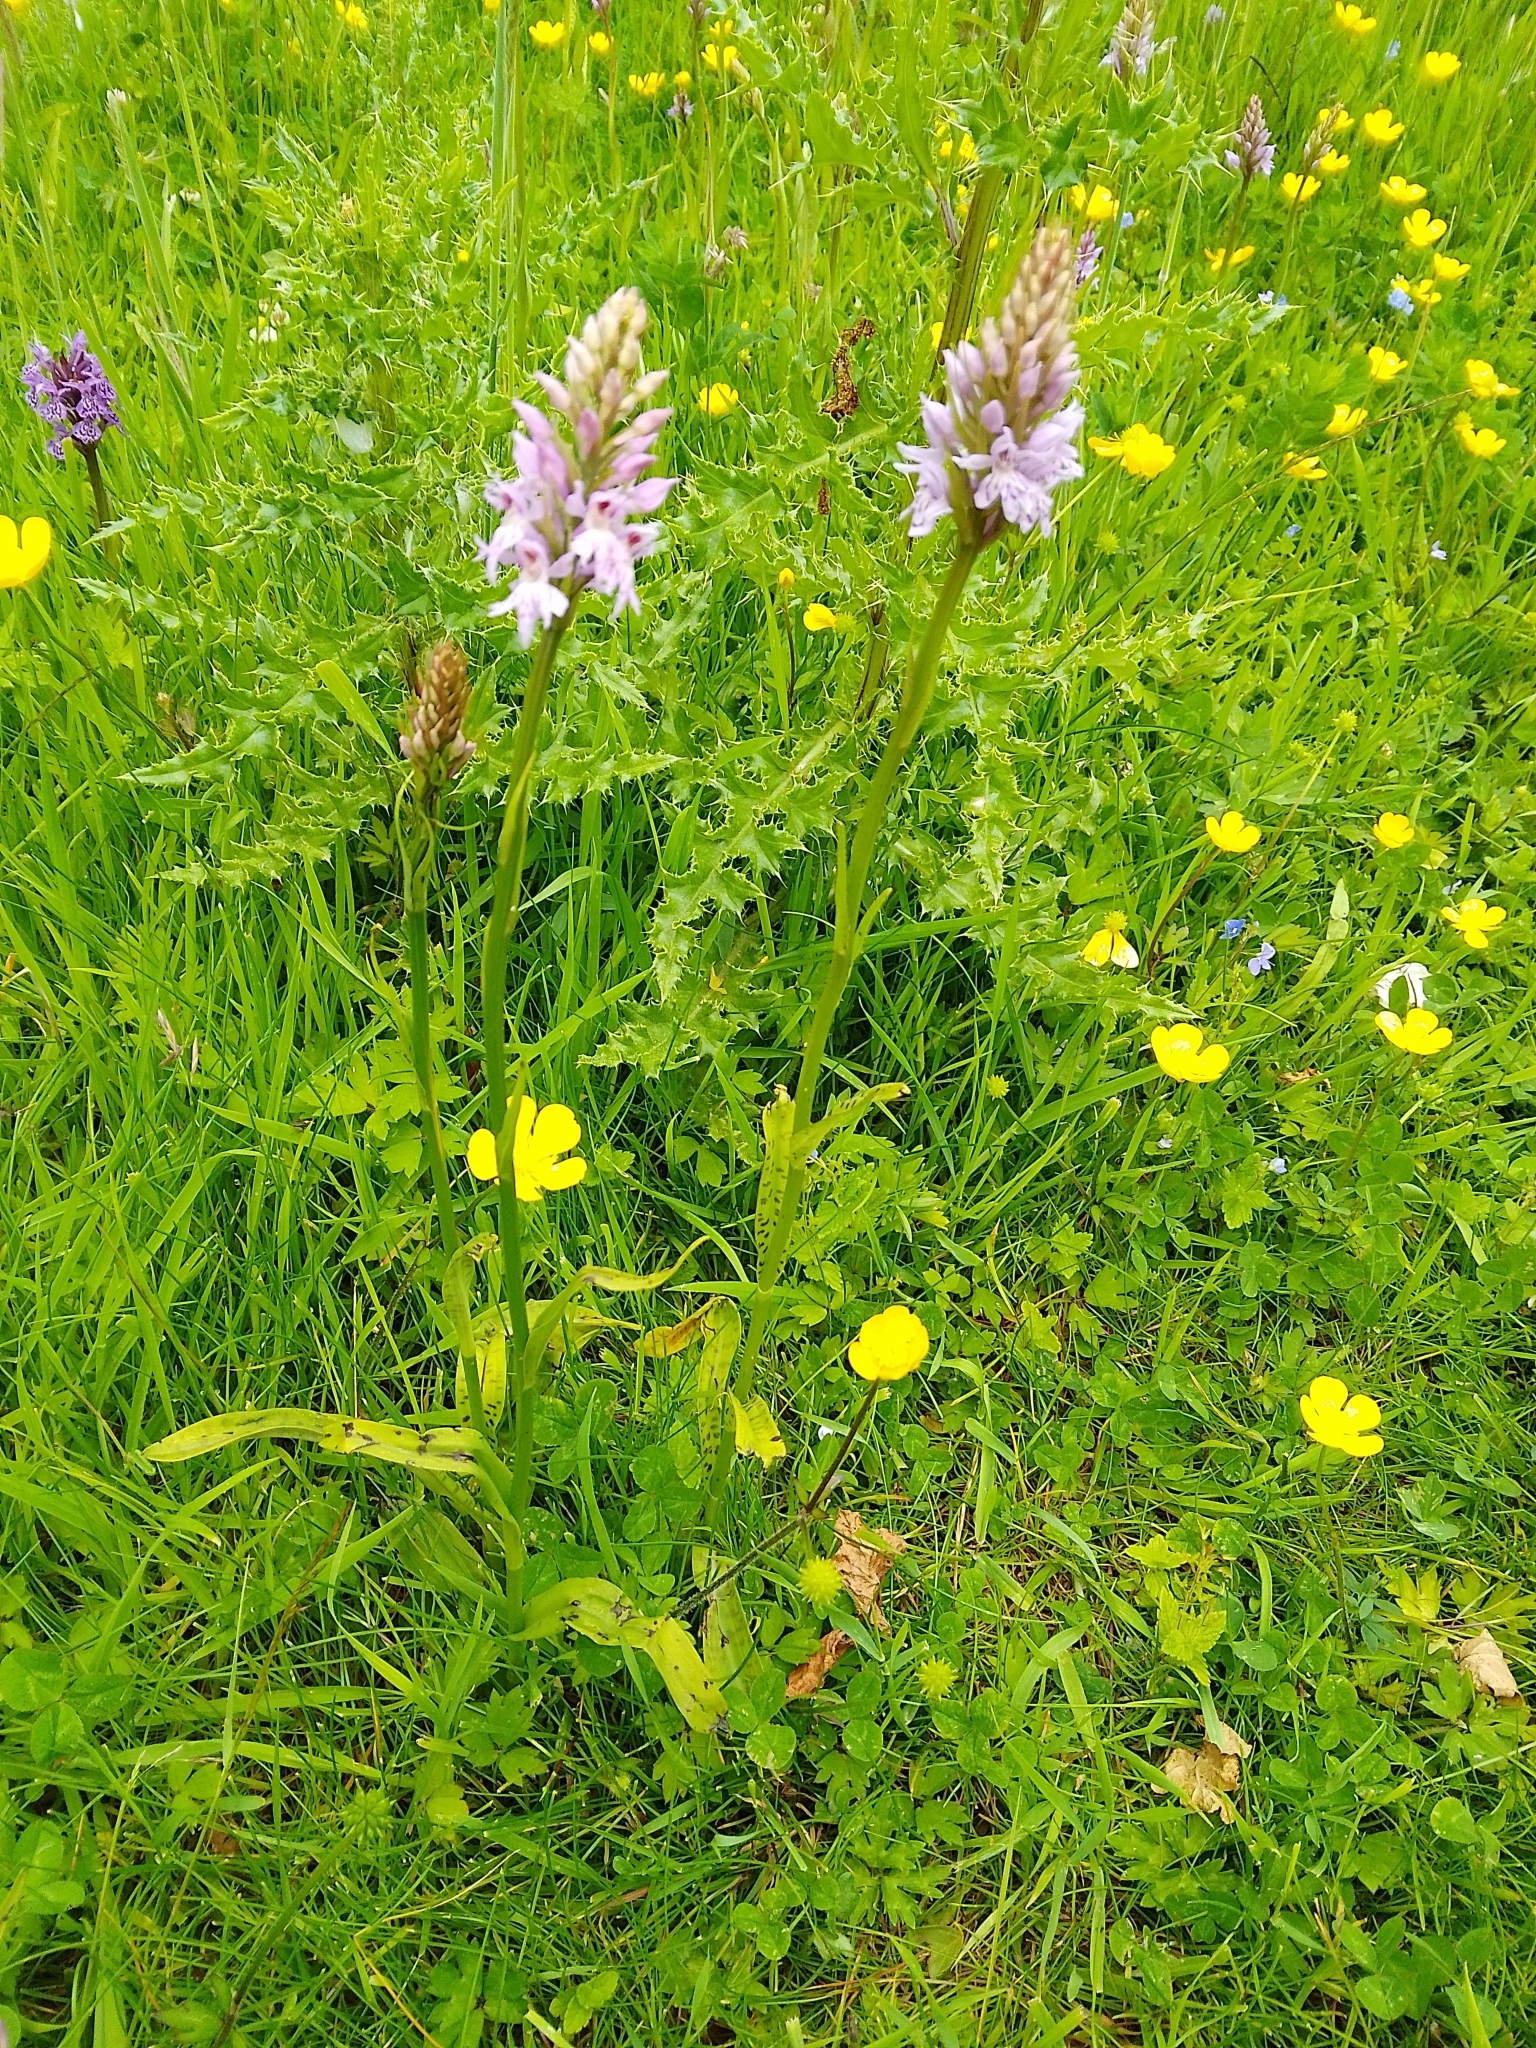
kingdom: Plantae
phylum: Tracheophyta
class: Liliopsida
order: Asparagales
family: Orchidaceae
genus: Dactylorhiza
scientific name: Dactylorhiza maculata
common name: Heath spotted-orchid
